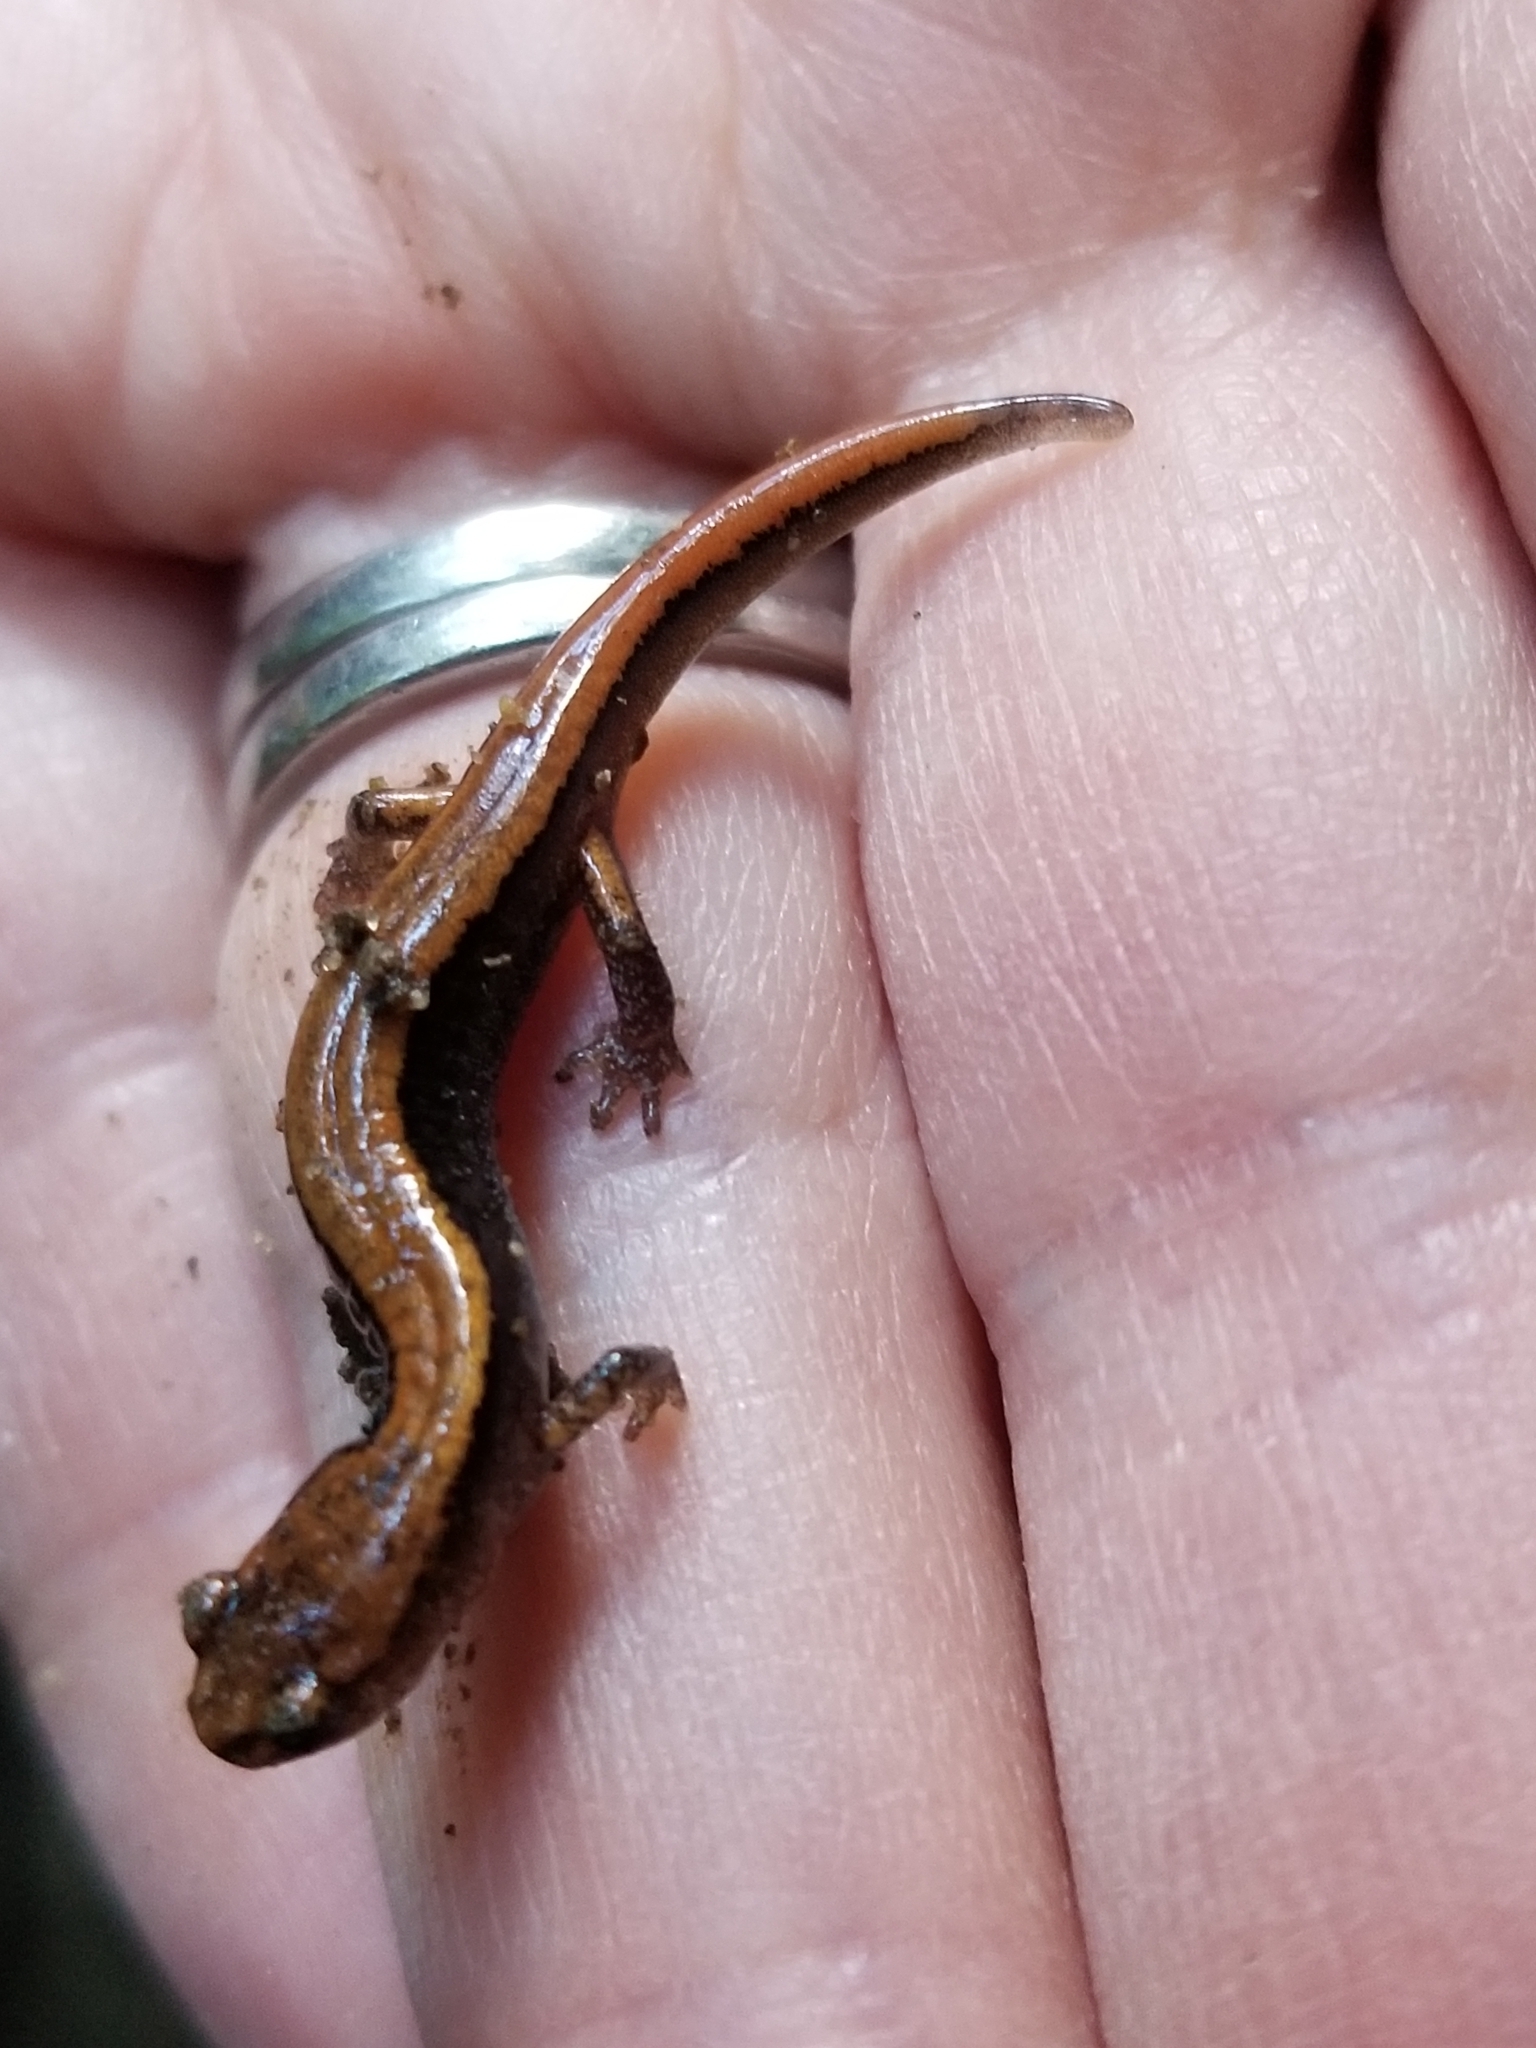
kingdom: Animalia
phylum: Chordata
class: Amphibia
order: Caudata
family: Plethodontidae
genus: Plethodon
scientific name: Plethodon vehiculum
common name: Western red-backed salamander
